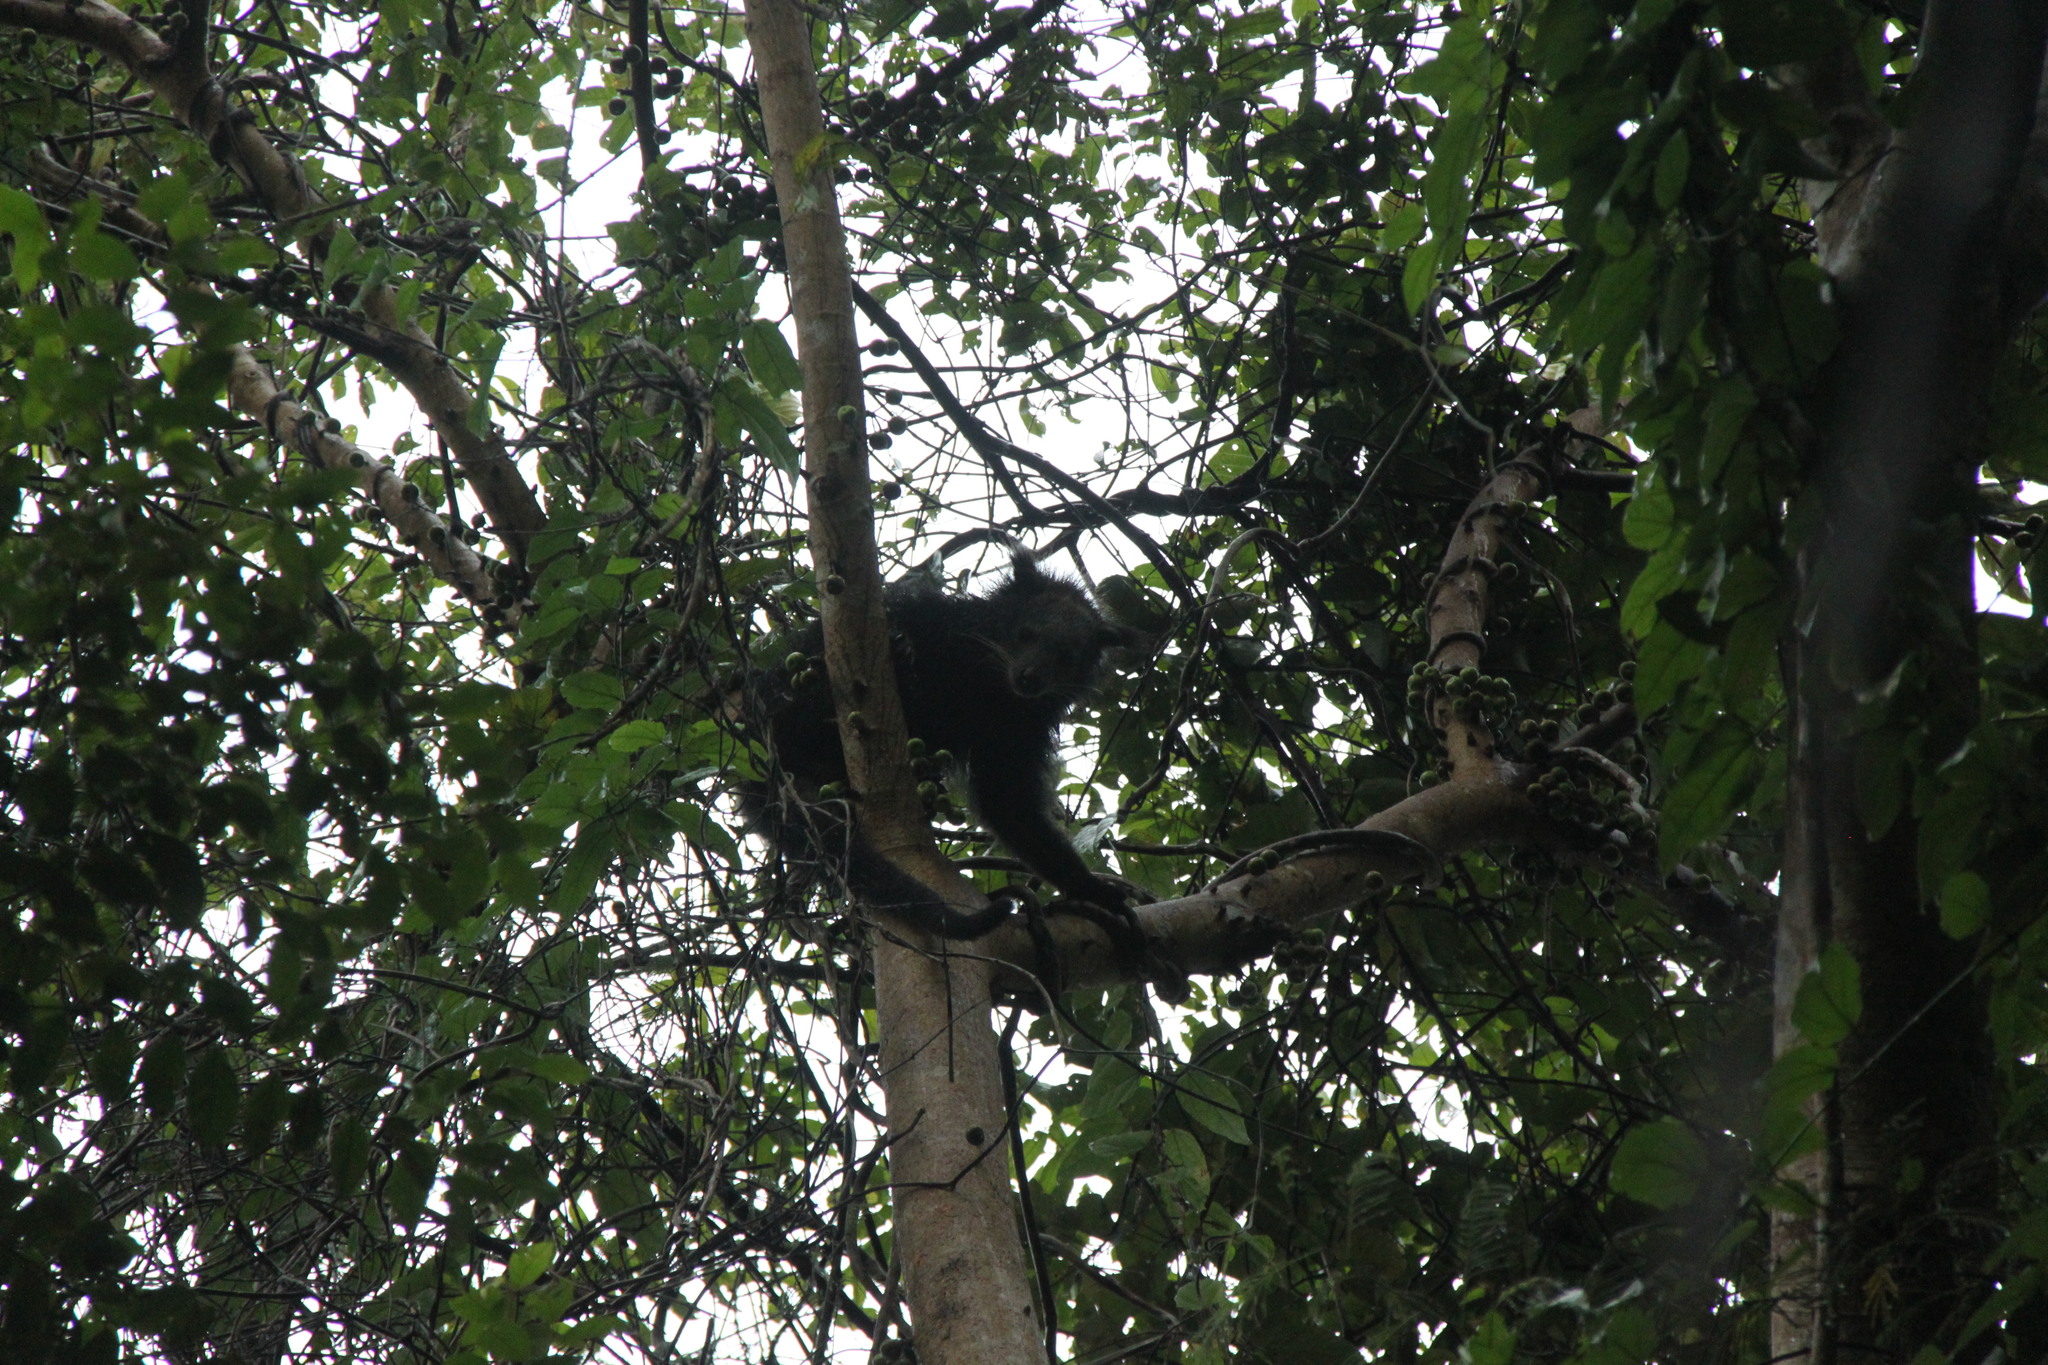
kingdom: Animalia
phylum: Chordata
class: Mammalia
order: Carnivora
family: Viverridae
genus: Arctictis
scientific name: Arctictis binturong
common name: Binturong
